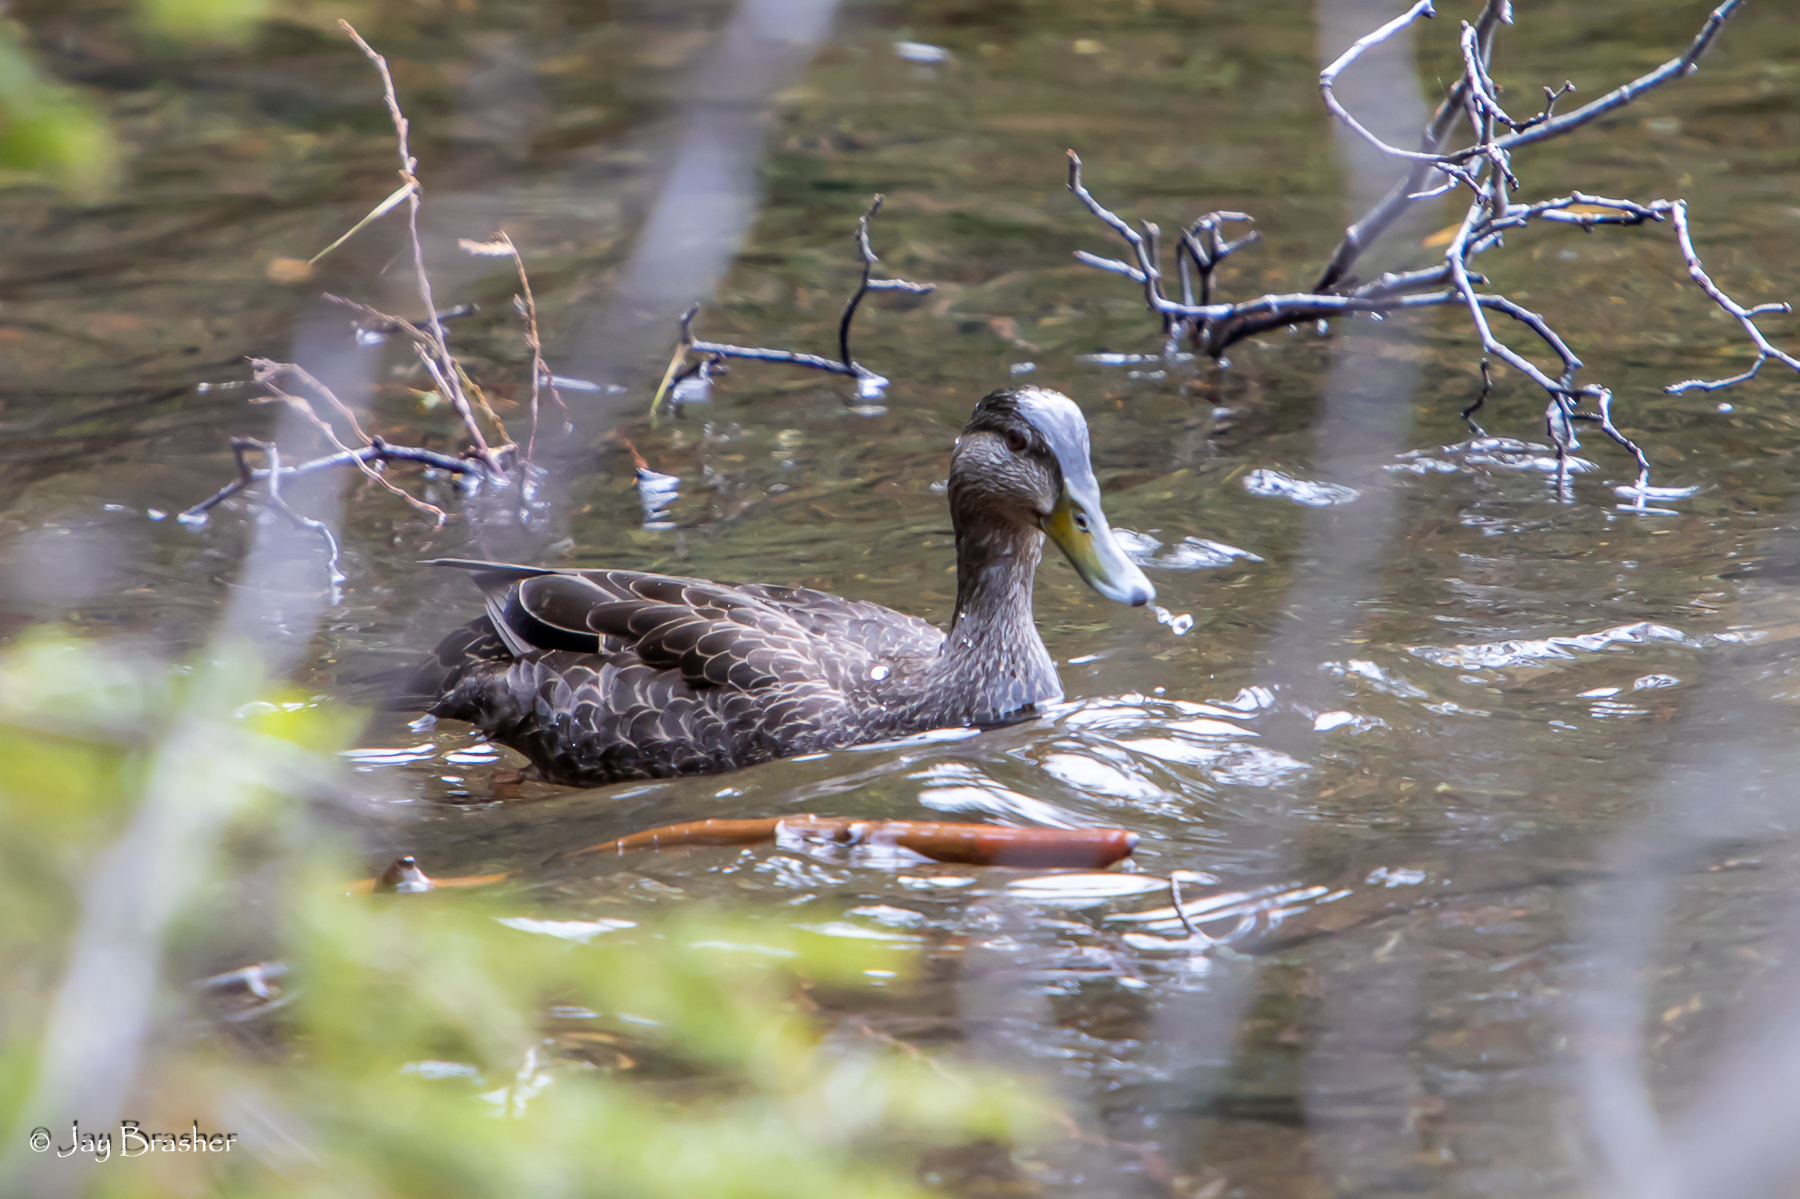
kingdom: Animalia
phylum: Chordata
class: Aves
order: Anseriformes
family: Anatidae
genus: Anas
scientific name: Anas rubripes
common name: American black duck
